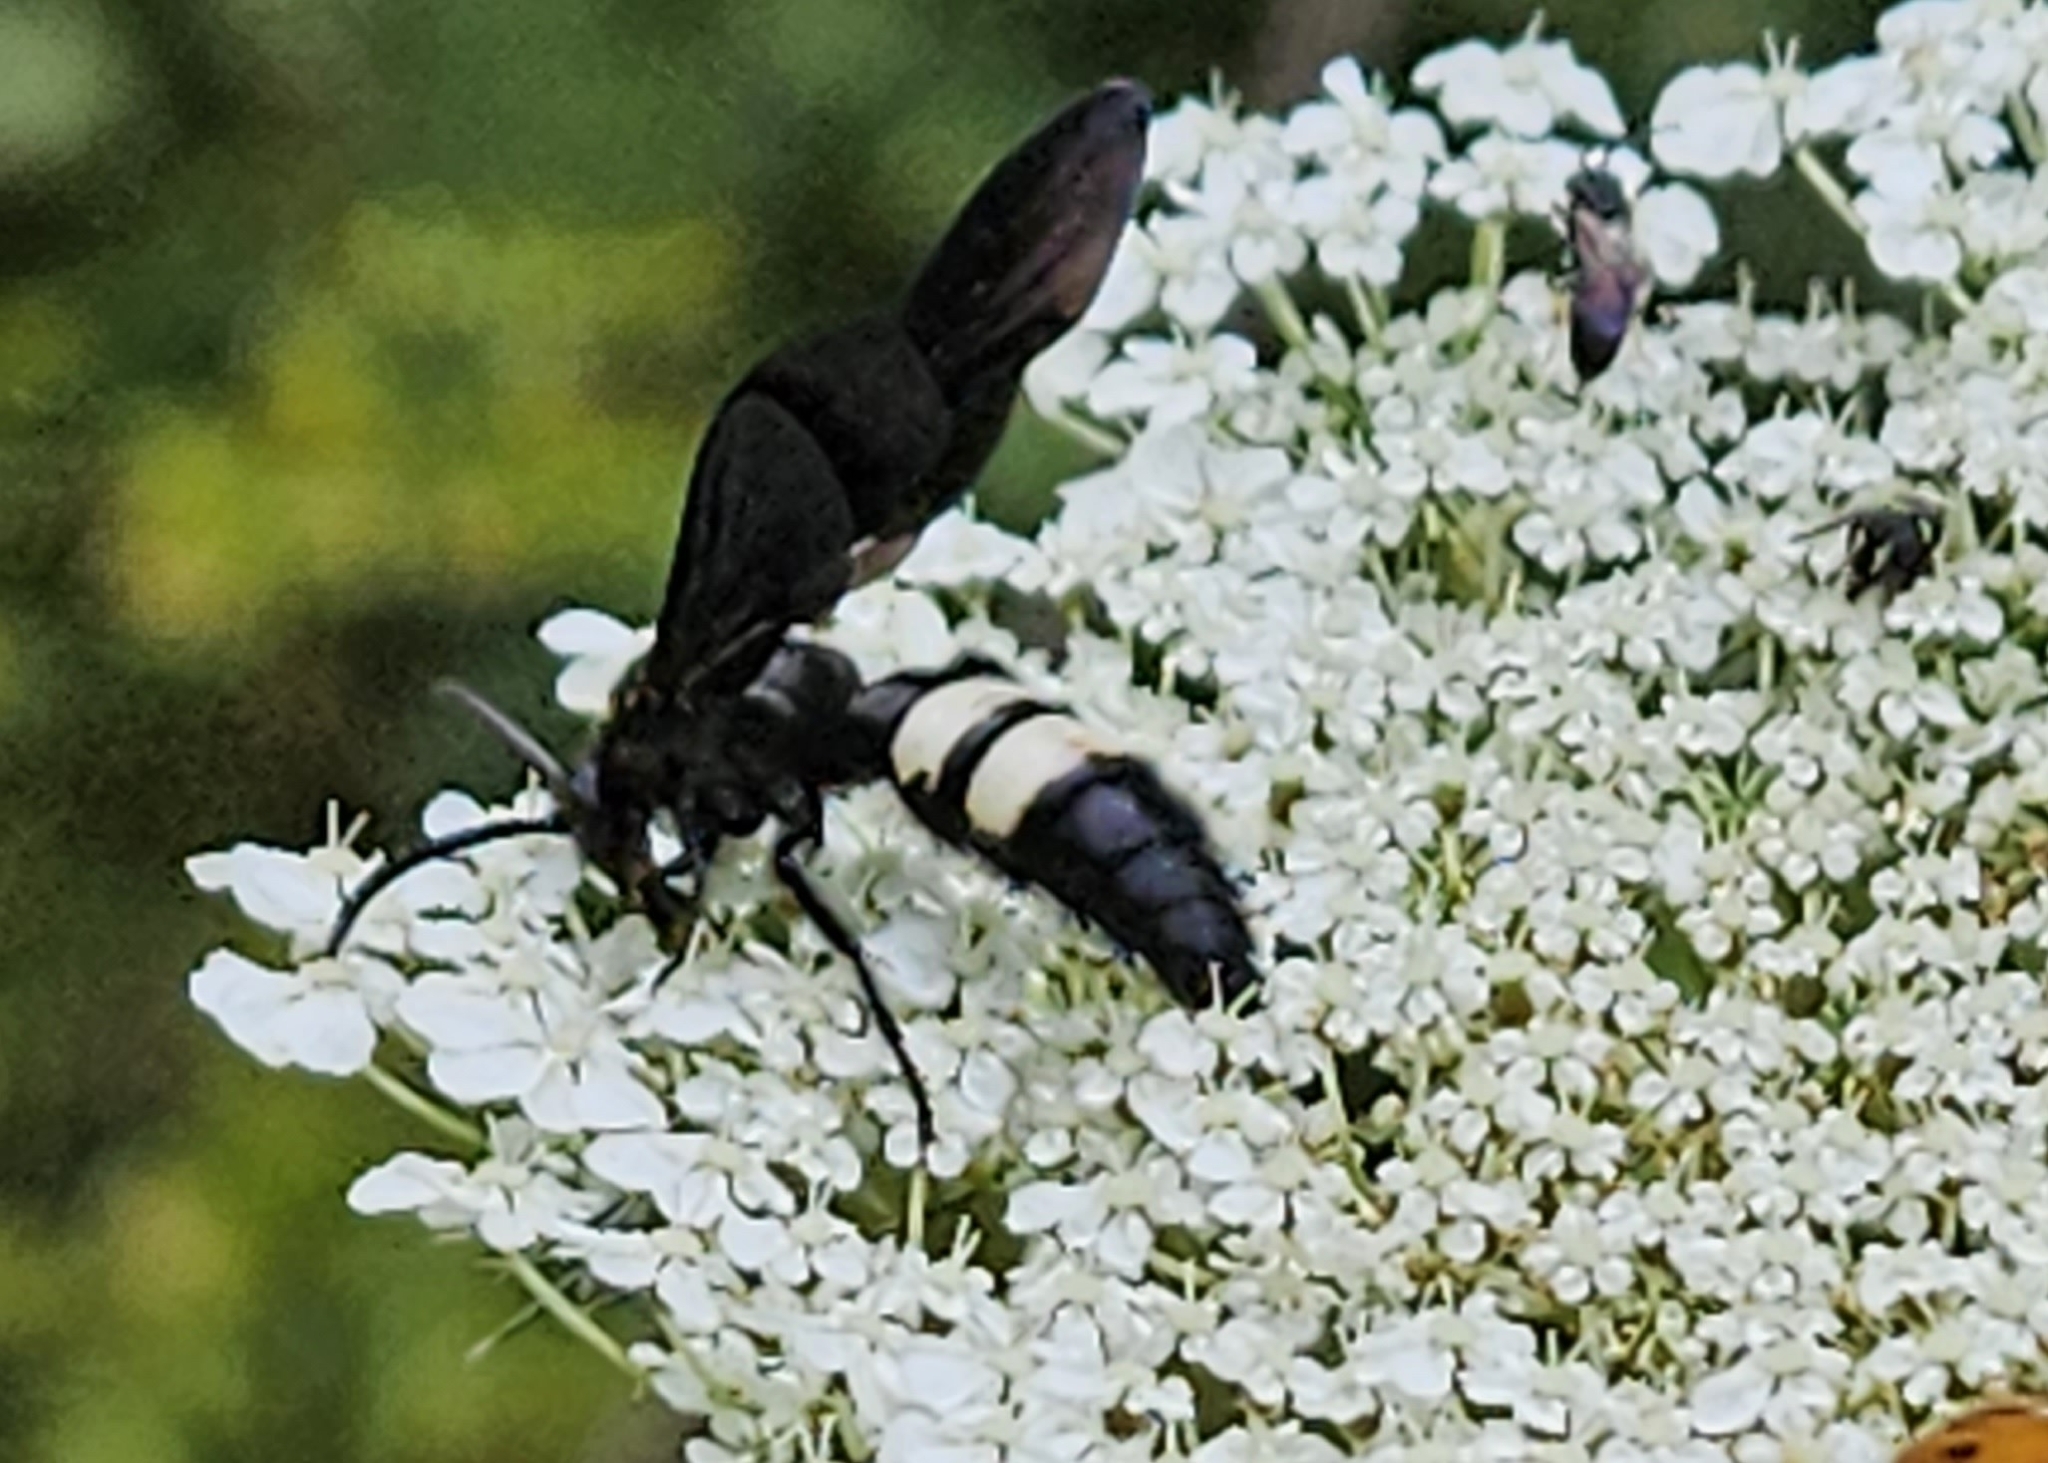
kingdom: Animalia
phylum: Arthropoda
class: Insecta
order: Hymenoptera
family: Scoliidae
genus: Scolia
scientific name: Scolia bicincta
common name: Double-banded scoliid wasp
